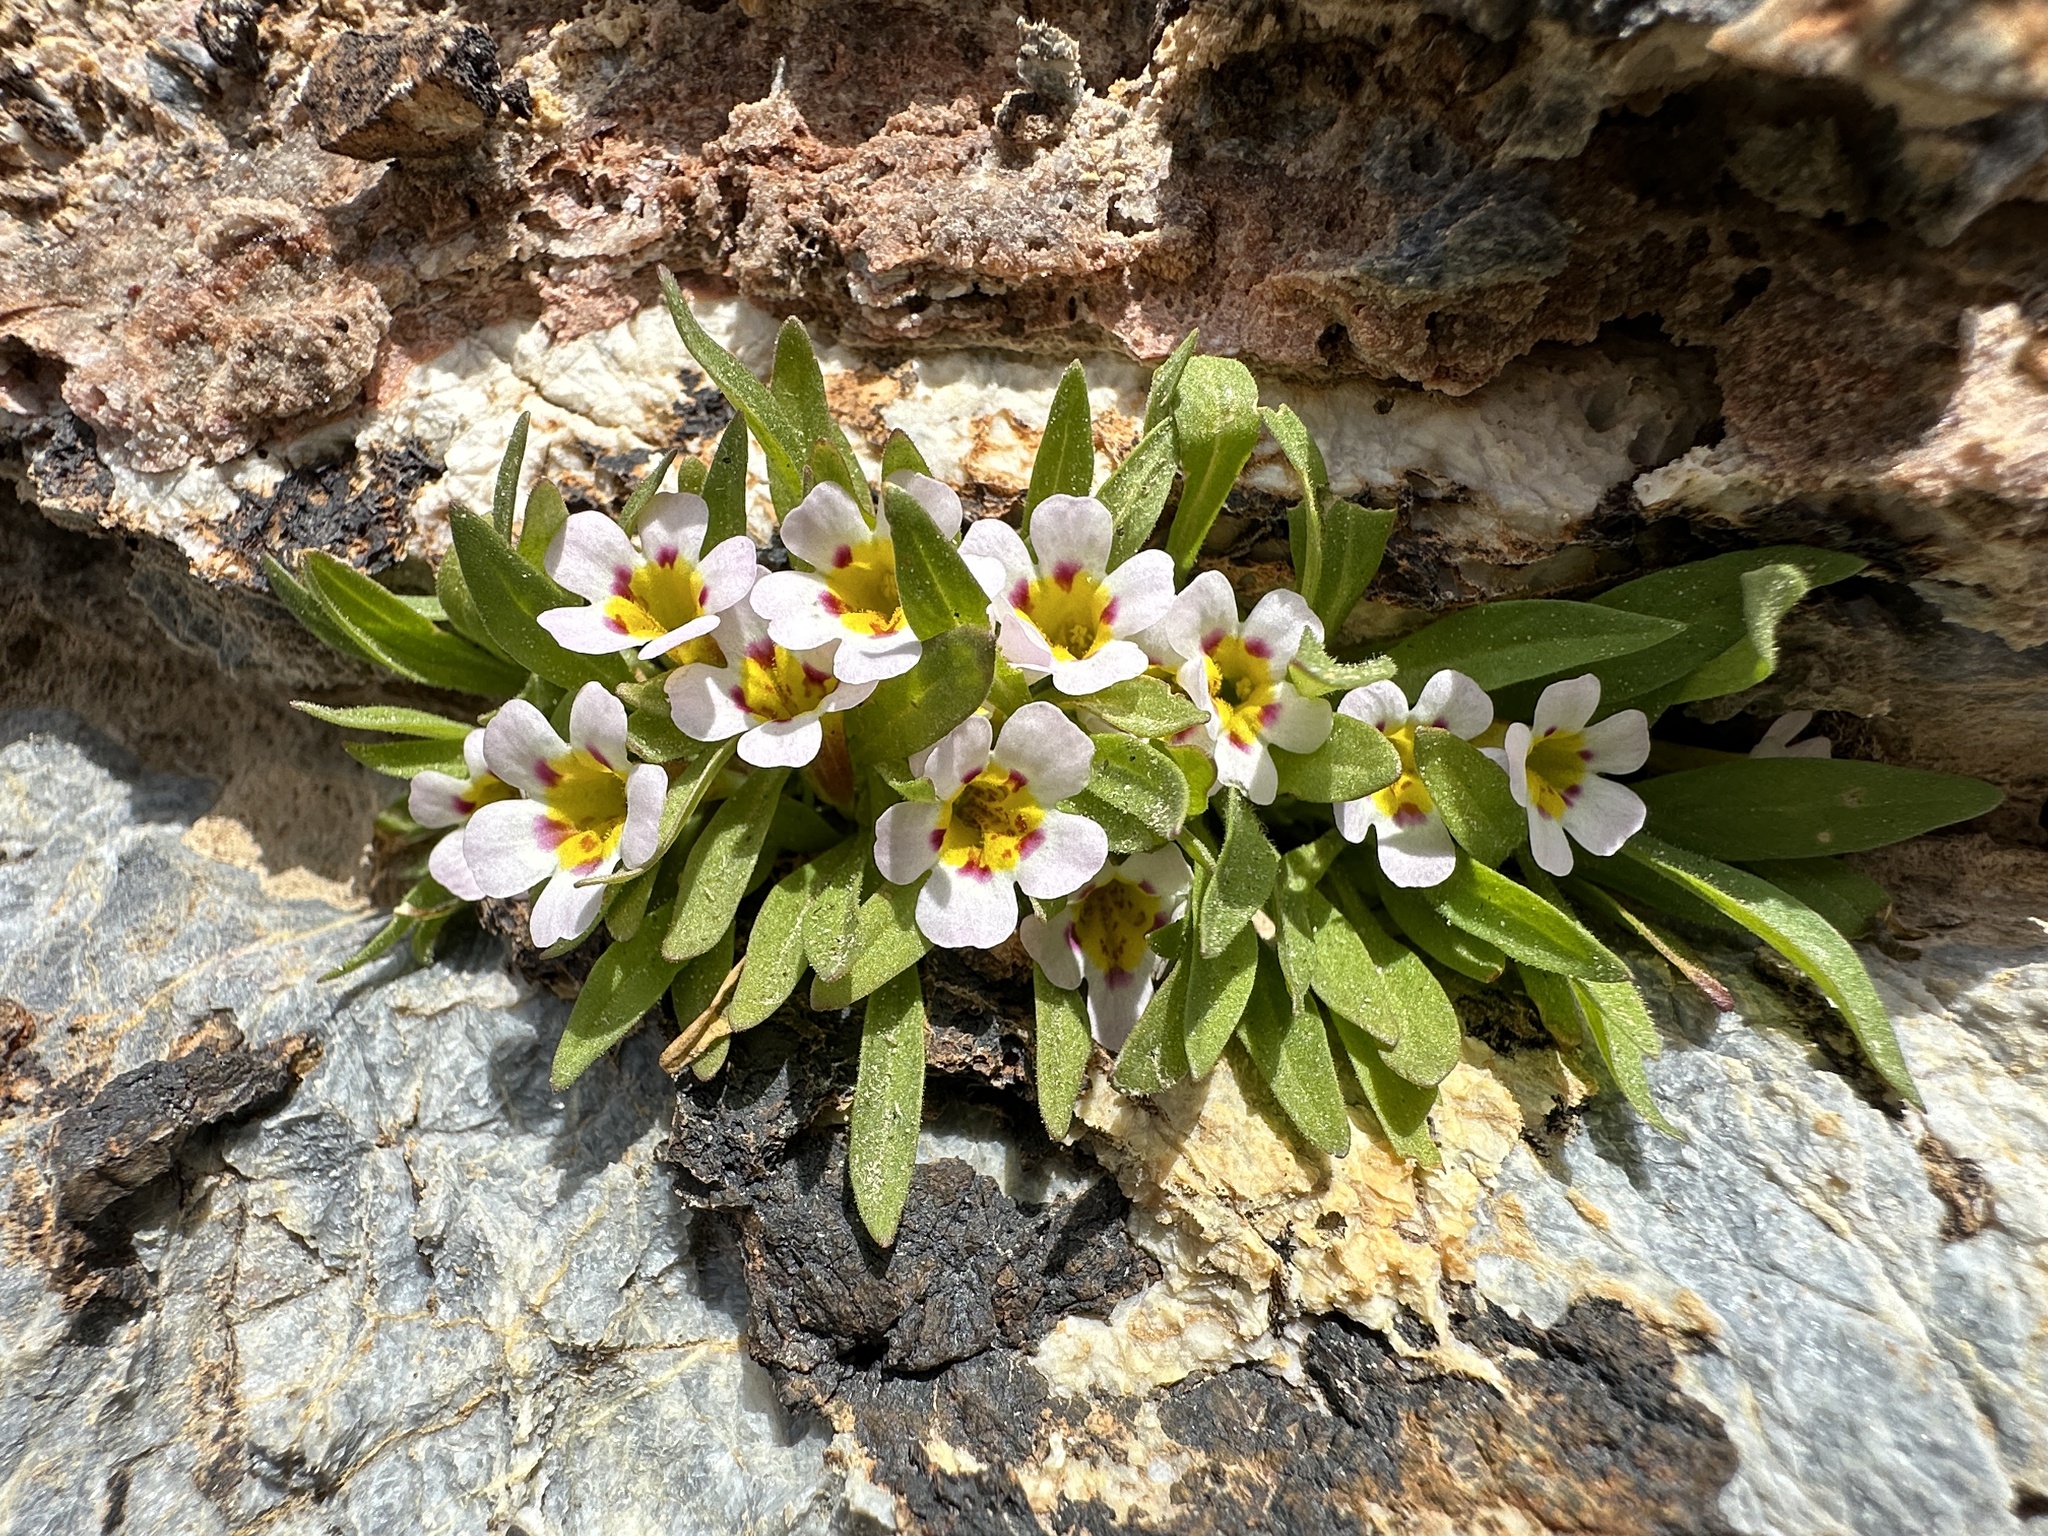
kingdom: Plantae
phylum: Tracheophyta
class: Magnoliopsida
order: Lamiales
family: Phrymaceae
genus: Diplacus
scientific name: Diplacus rupicola
